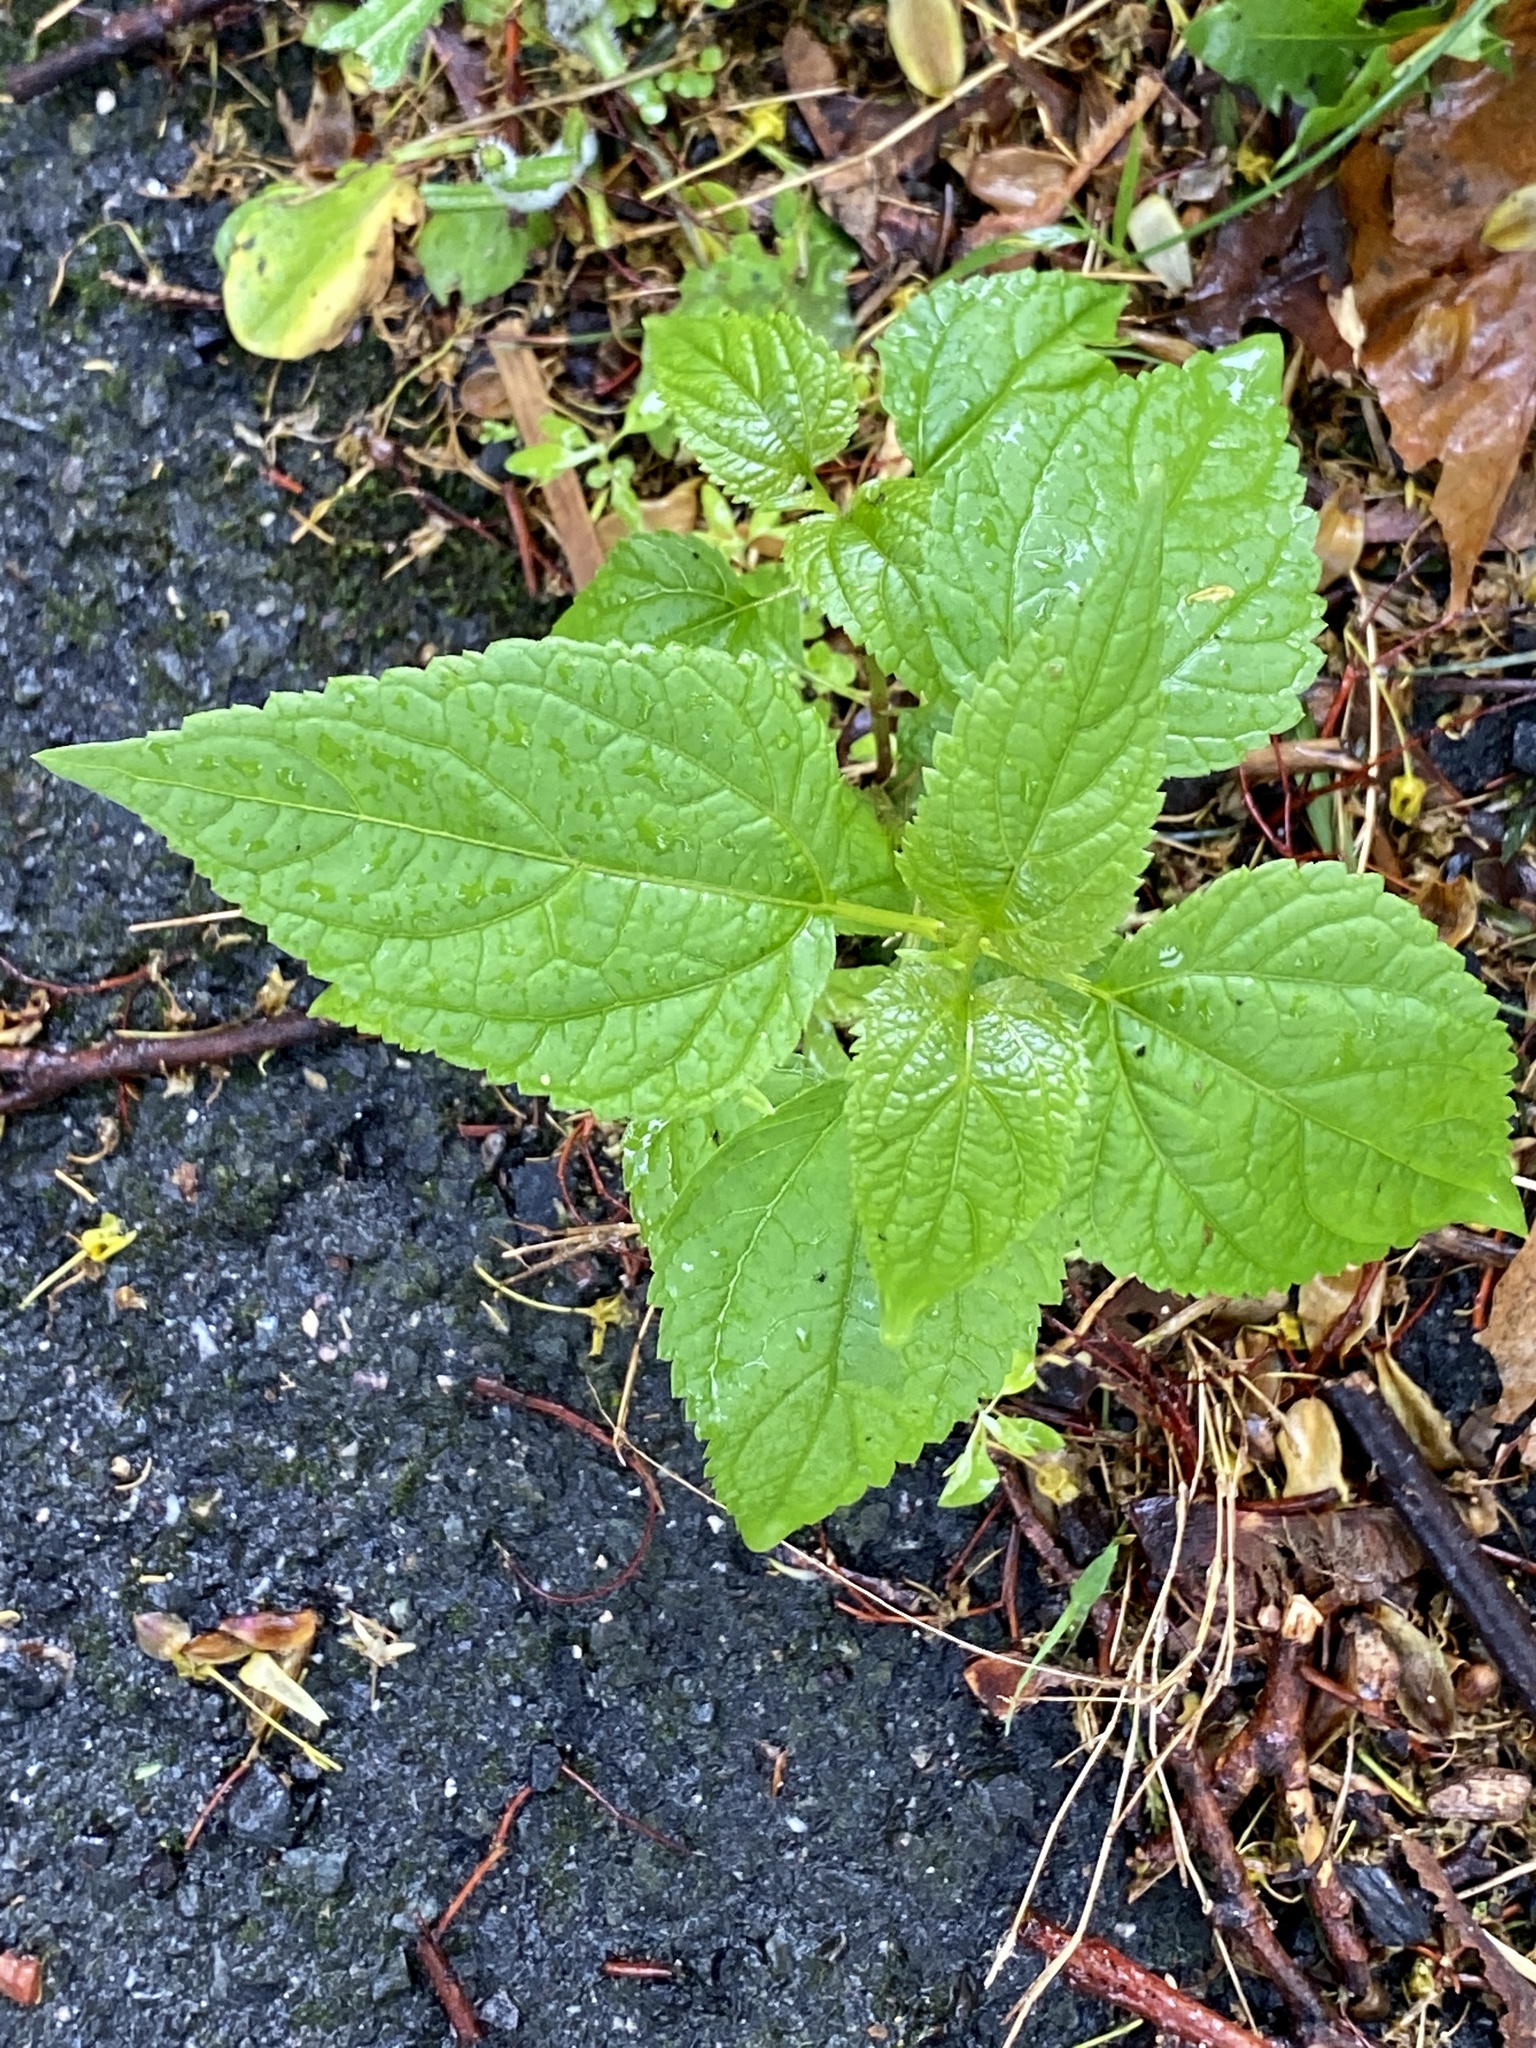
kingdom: Plantae
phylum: Tracheophyta
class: Magnoliopsida
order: Asterales
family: Asteraceae
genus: Ageratina
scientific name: Ageratina altissima
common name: White snakeroot
